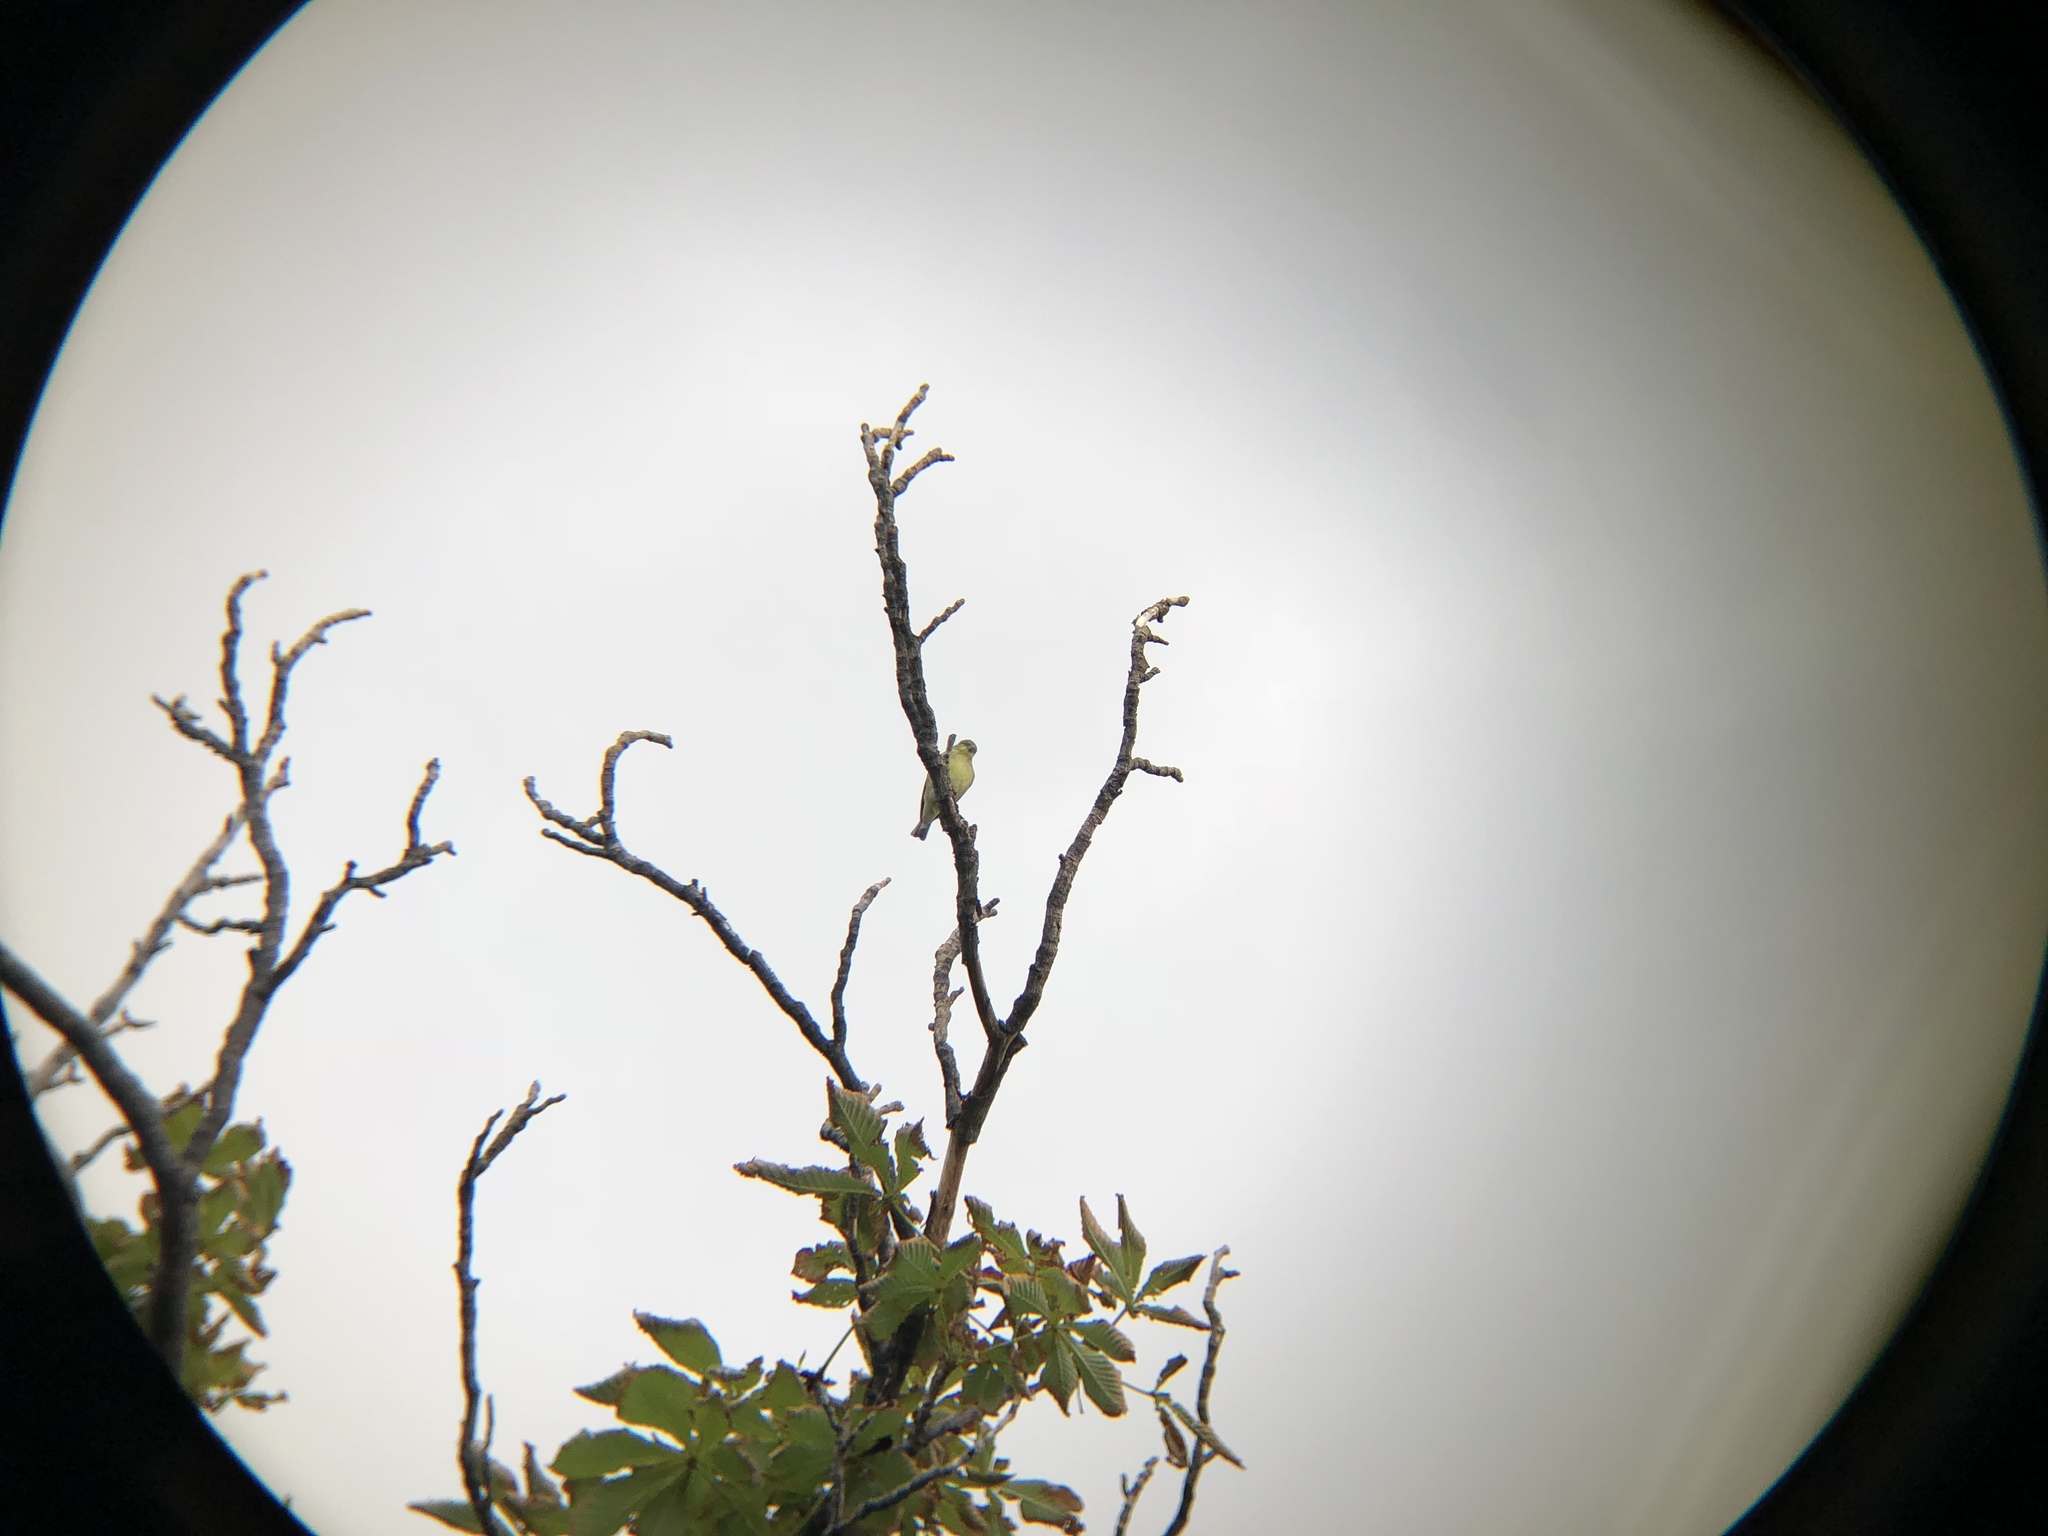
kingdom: Animalia
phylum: Chordata
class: Aves
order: Passeriformes
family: Fringillidae
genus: Spinus
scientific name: Spinus psaltria
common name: Lesser goldfinch
